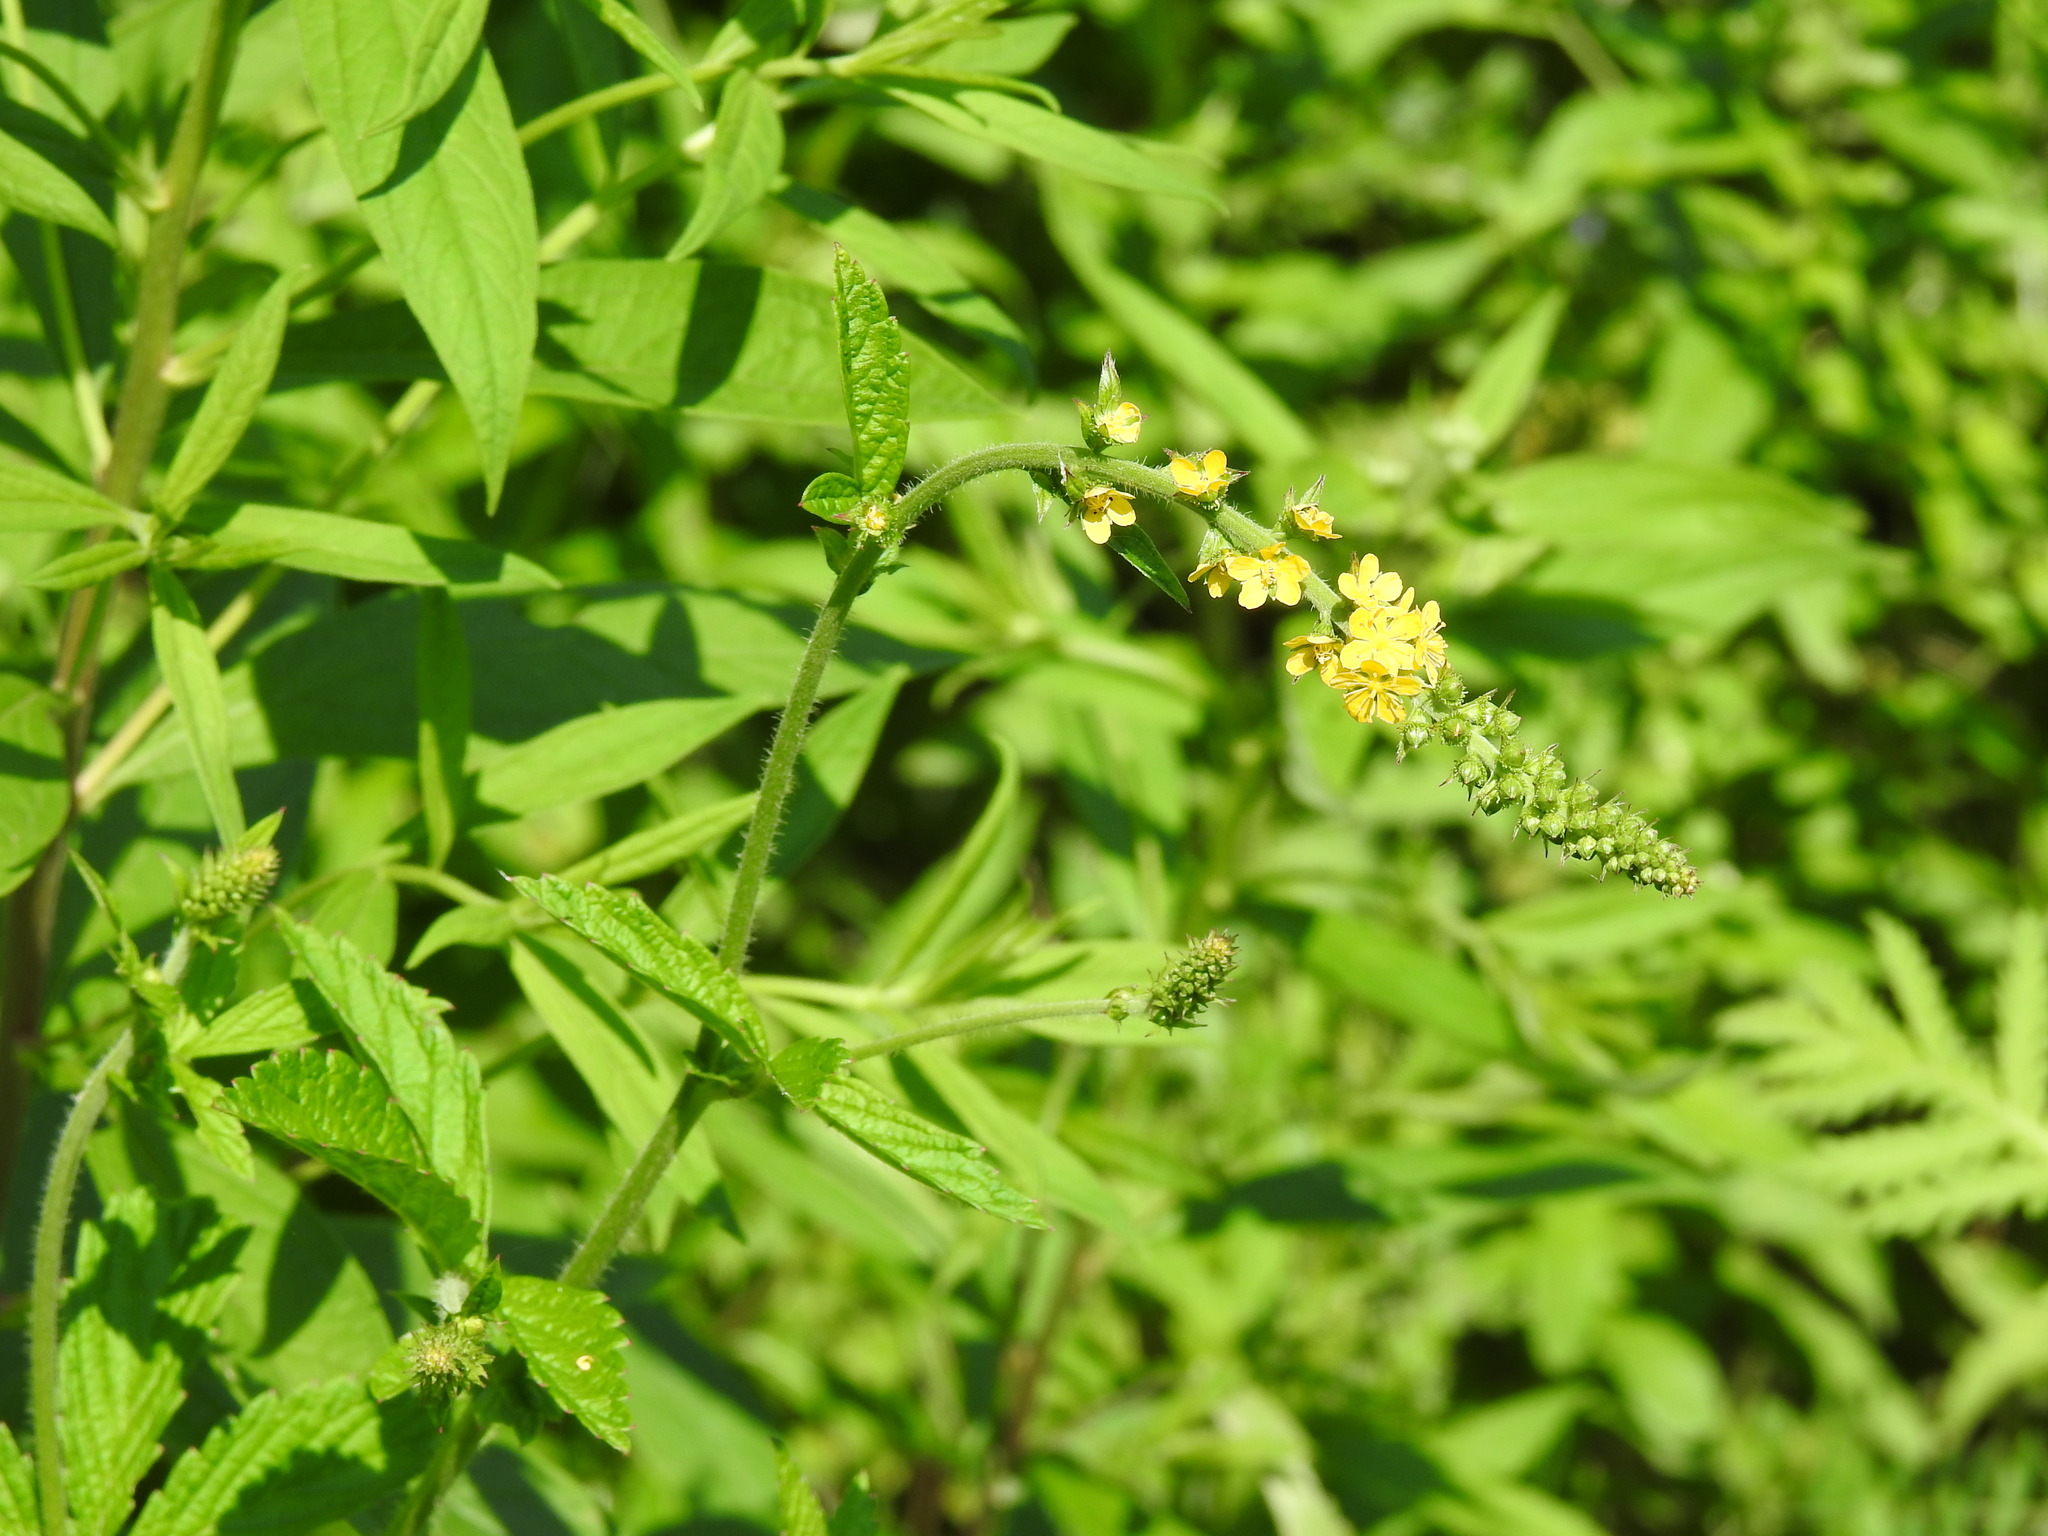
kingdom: Plantae
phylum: Tracheophyta
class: Magnoliopsida
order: Rosales
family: Rosaceae
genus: Agrimonia
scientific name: Agrimonia striata
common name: Britton's agrimony
